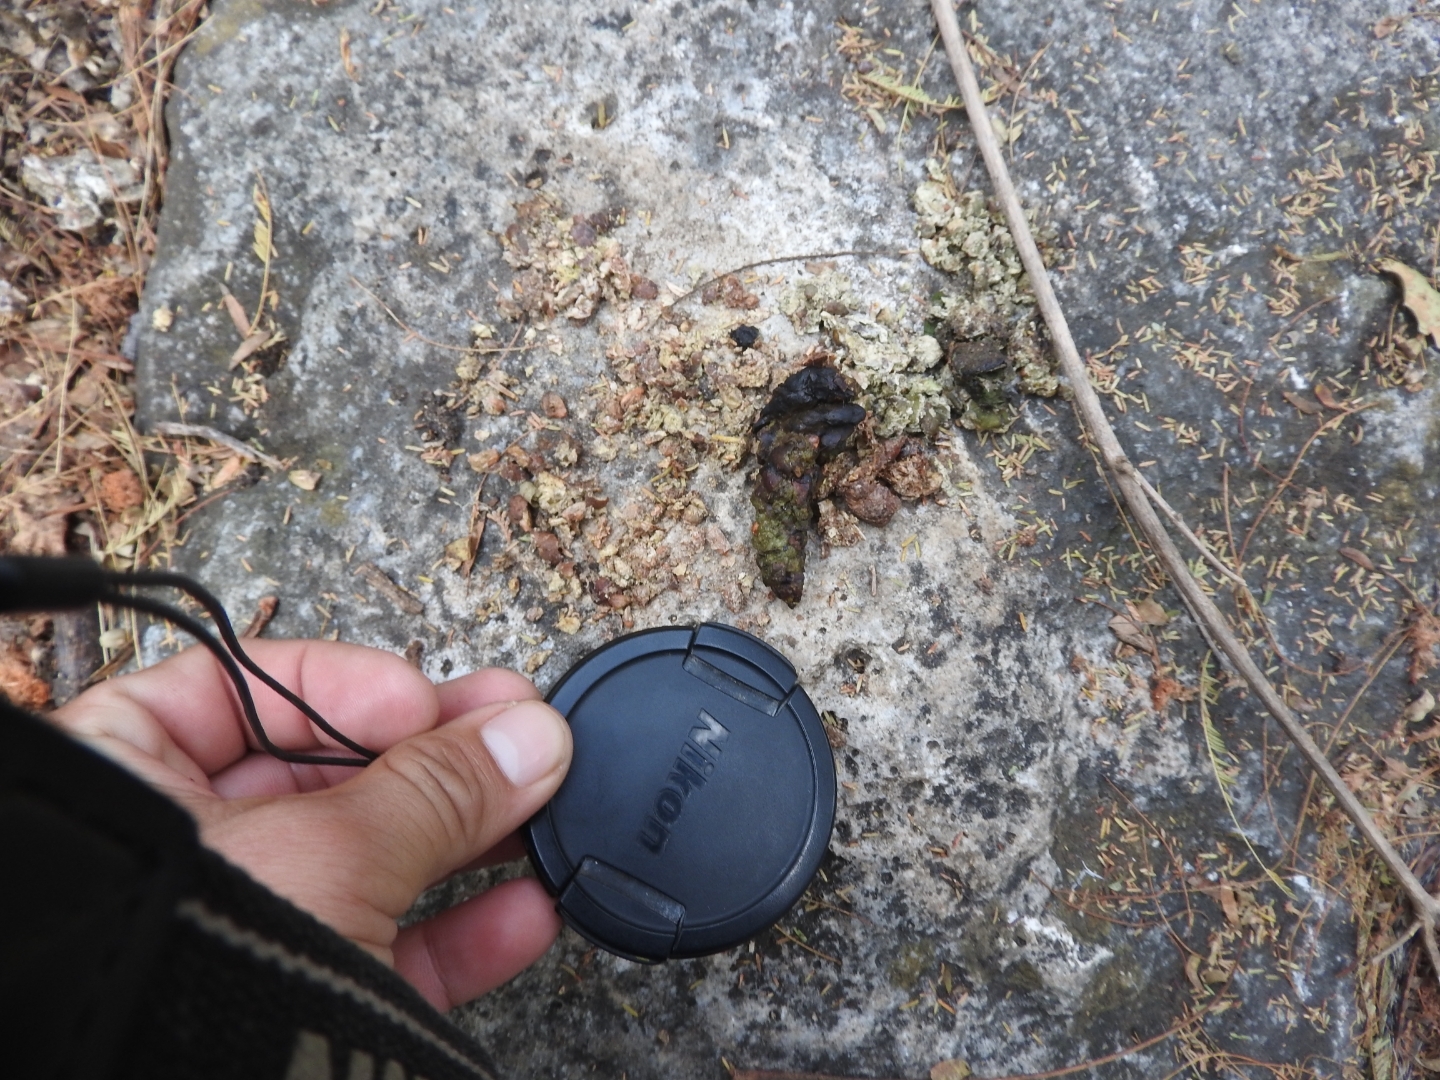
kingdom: Animalia
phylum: Chordata
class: Mammalia
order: Carnivora
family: Procyonidae
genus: Bassariscus
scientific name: Bassariscus astutus
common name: Ringtail
